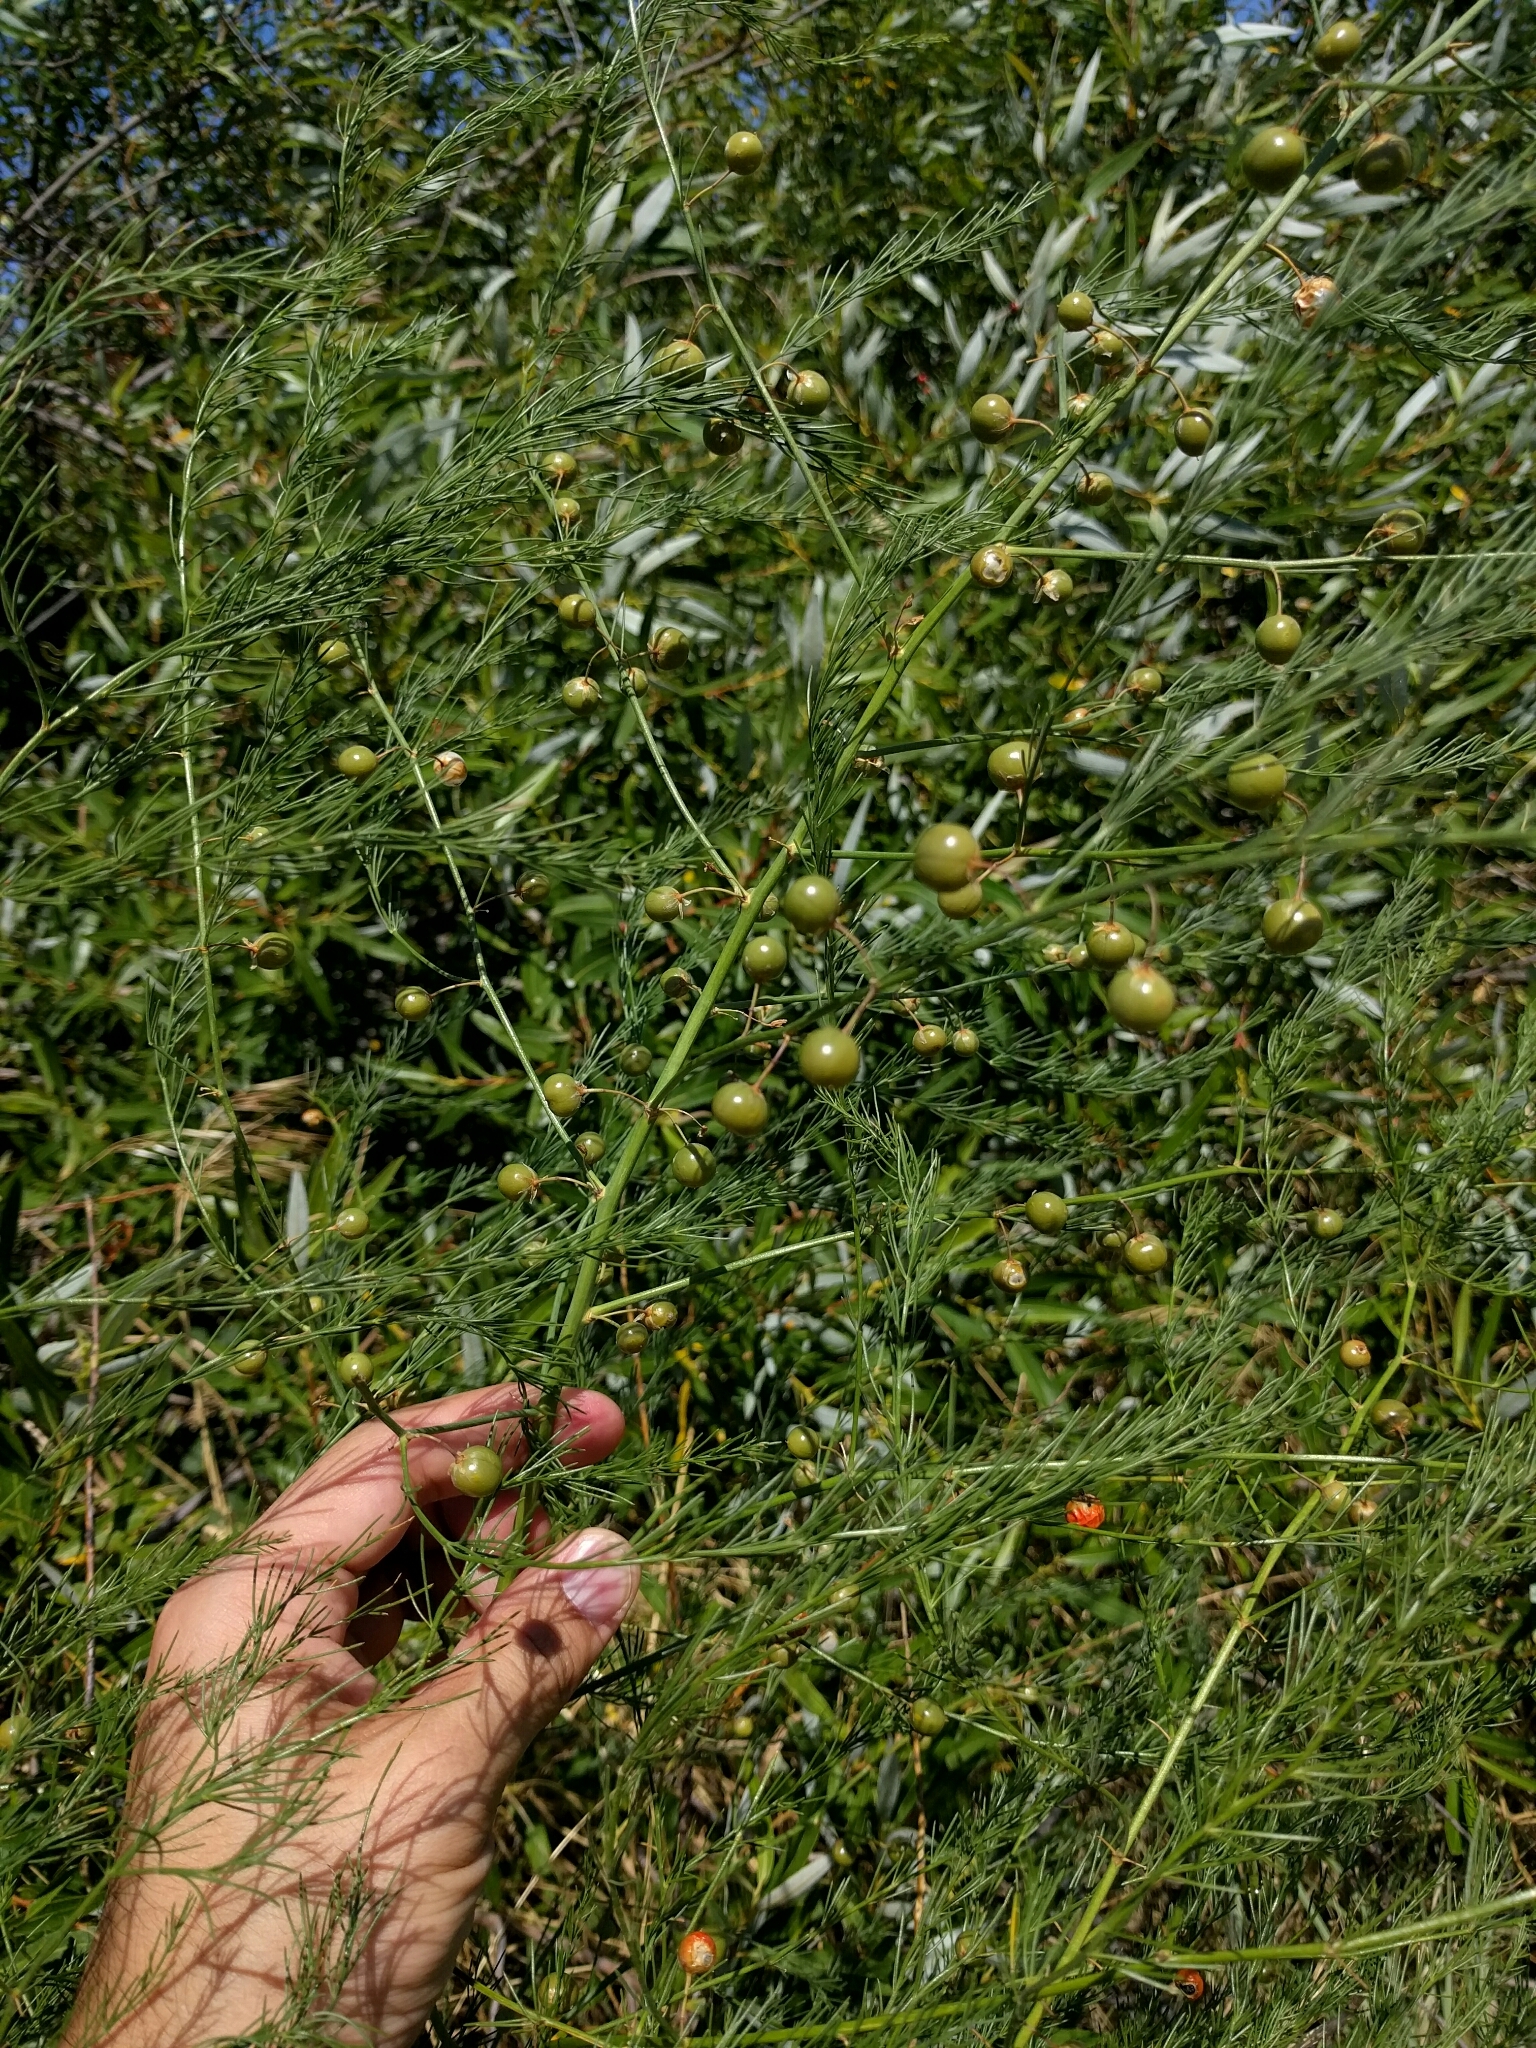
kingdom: Plantae
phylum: Tracheophyta
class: Liliopsida
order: Asparagales
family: Asparagaceae
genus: Asparagus
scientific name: Asparagus officinalis
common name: Garden asparagus
